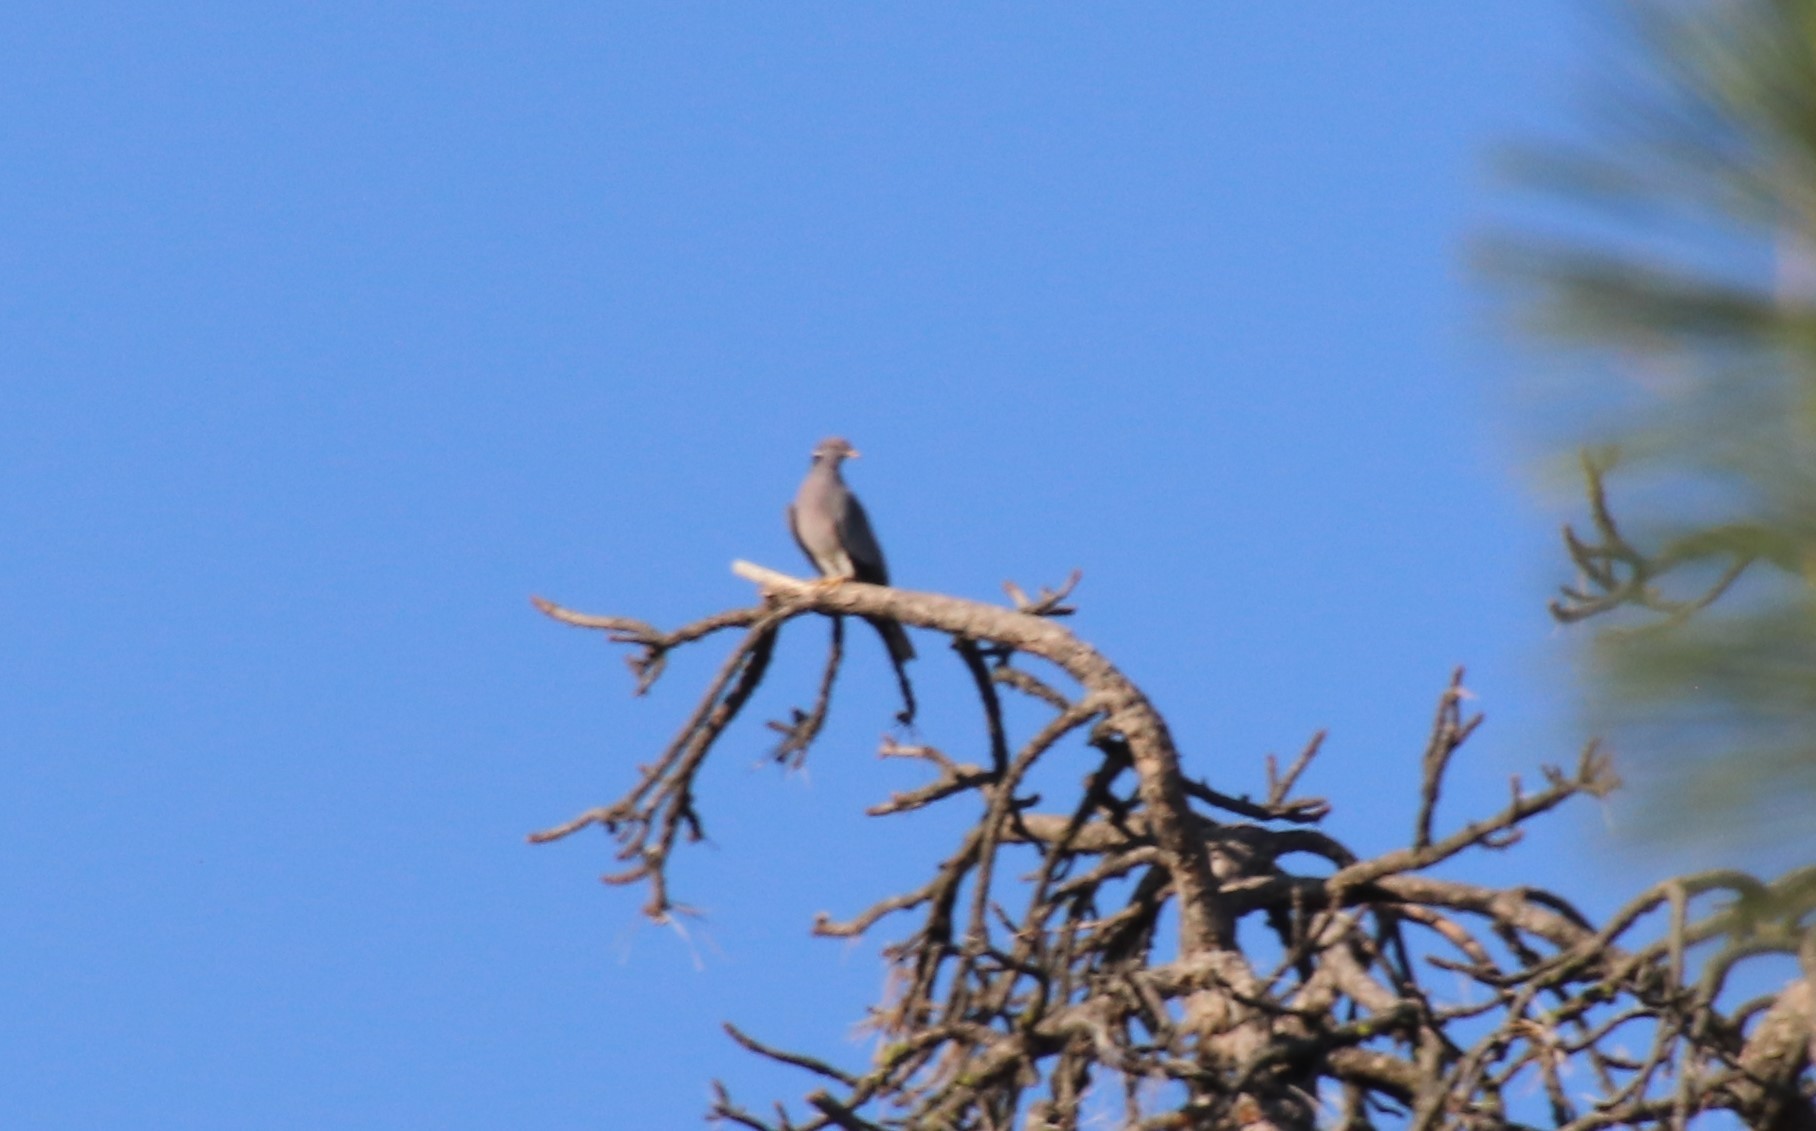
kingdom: Animalia
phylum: Chordata
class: Aves
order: Columbiformes
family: Columbidae
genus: Patagioenas
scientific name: Patagioenas fasciata
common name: Band-tailed pigeon
